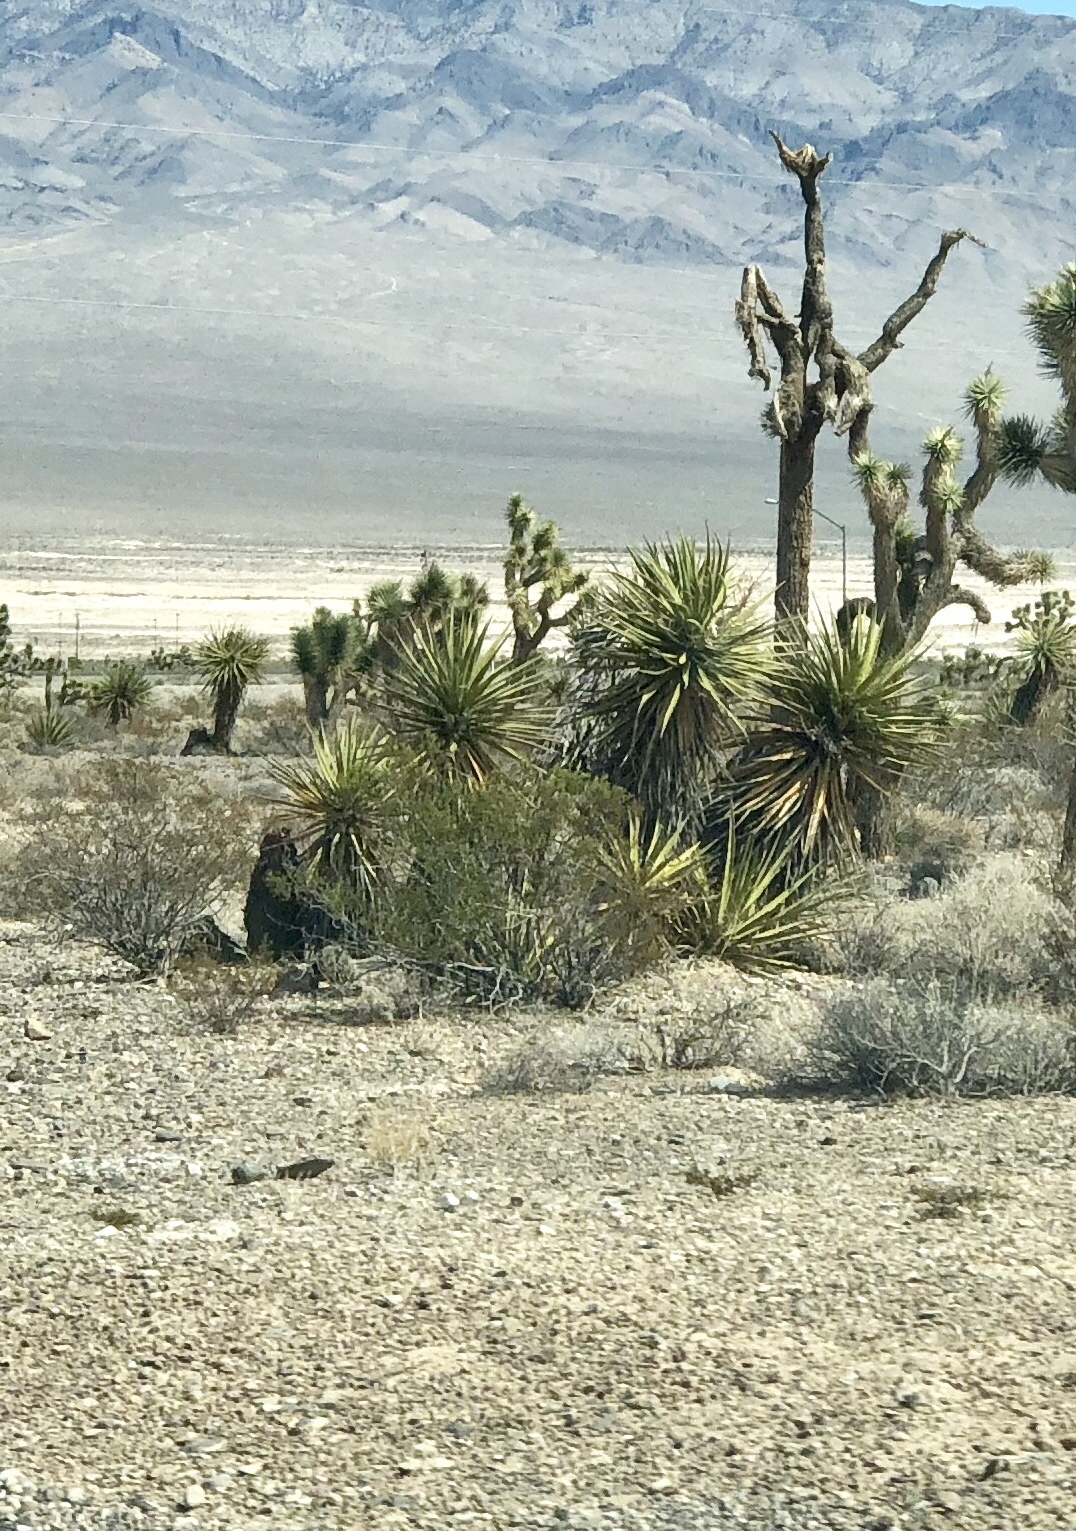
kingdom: Plantae
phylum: Tracheophyta
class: Liliopsida
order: Asparagales
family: Asparagaceae
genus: Yucca
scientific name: Yucca schidigera
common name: Mojave yucca
